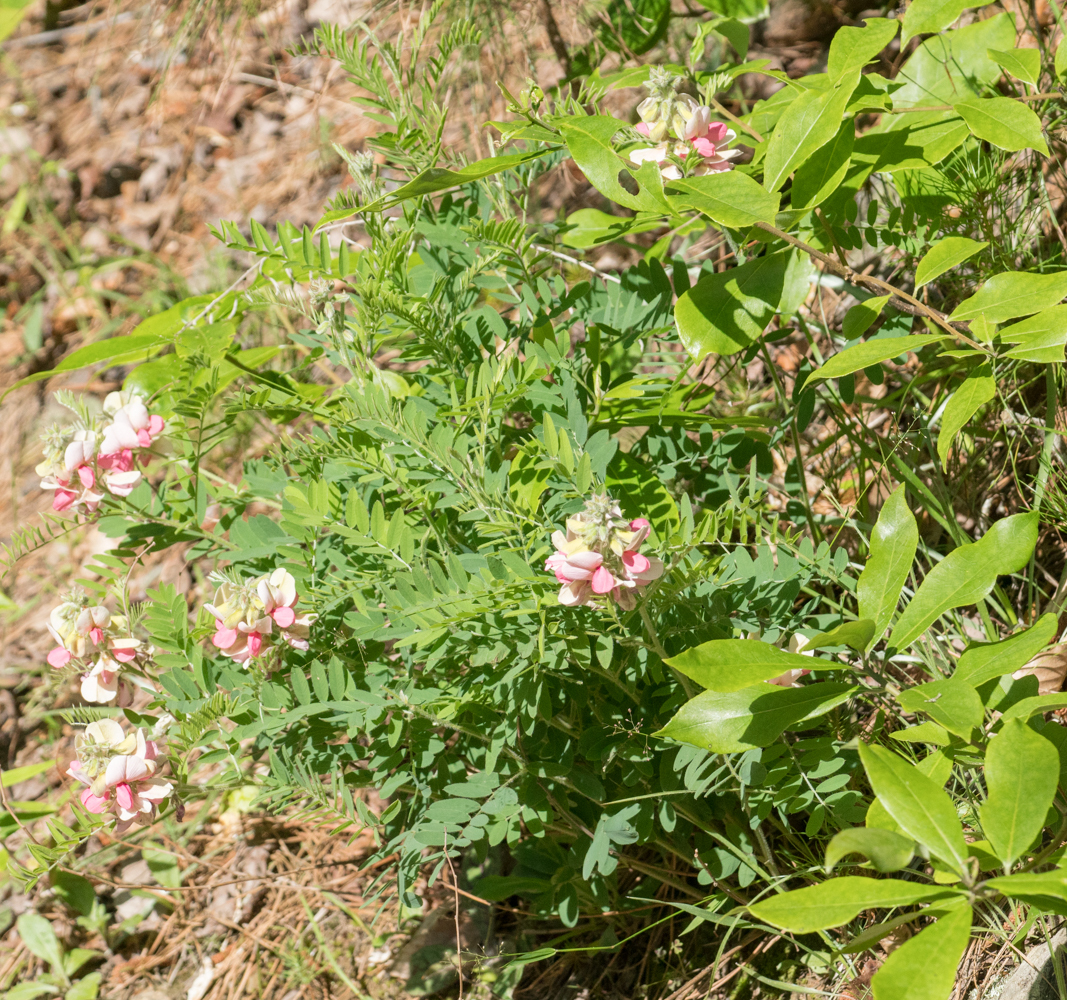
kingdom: Plantae
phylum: Tracheophyta
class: Magnoliopsida
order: Fabales
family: Fabaceae
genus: Tephrosia
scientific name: Tephrosia virginiana
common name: Rabbit-pea
